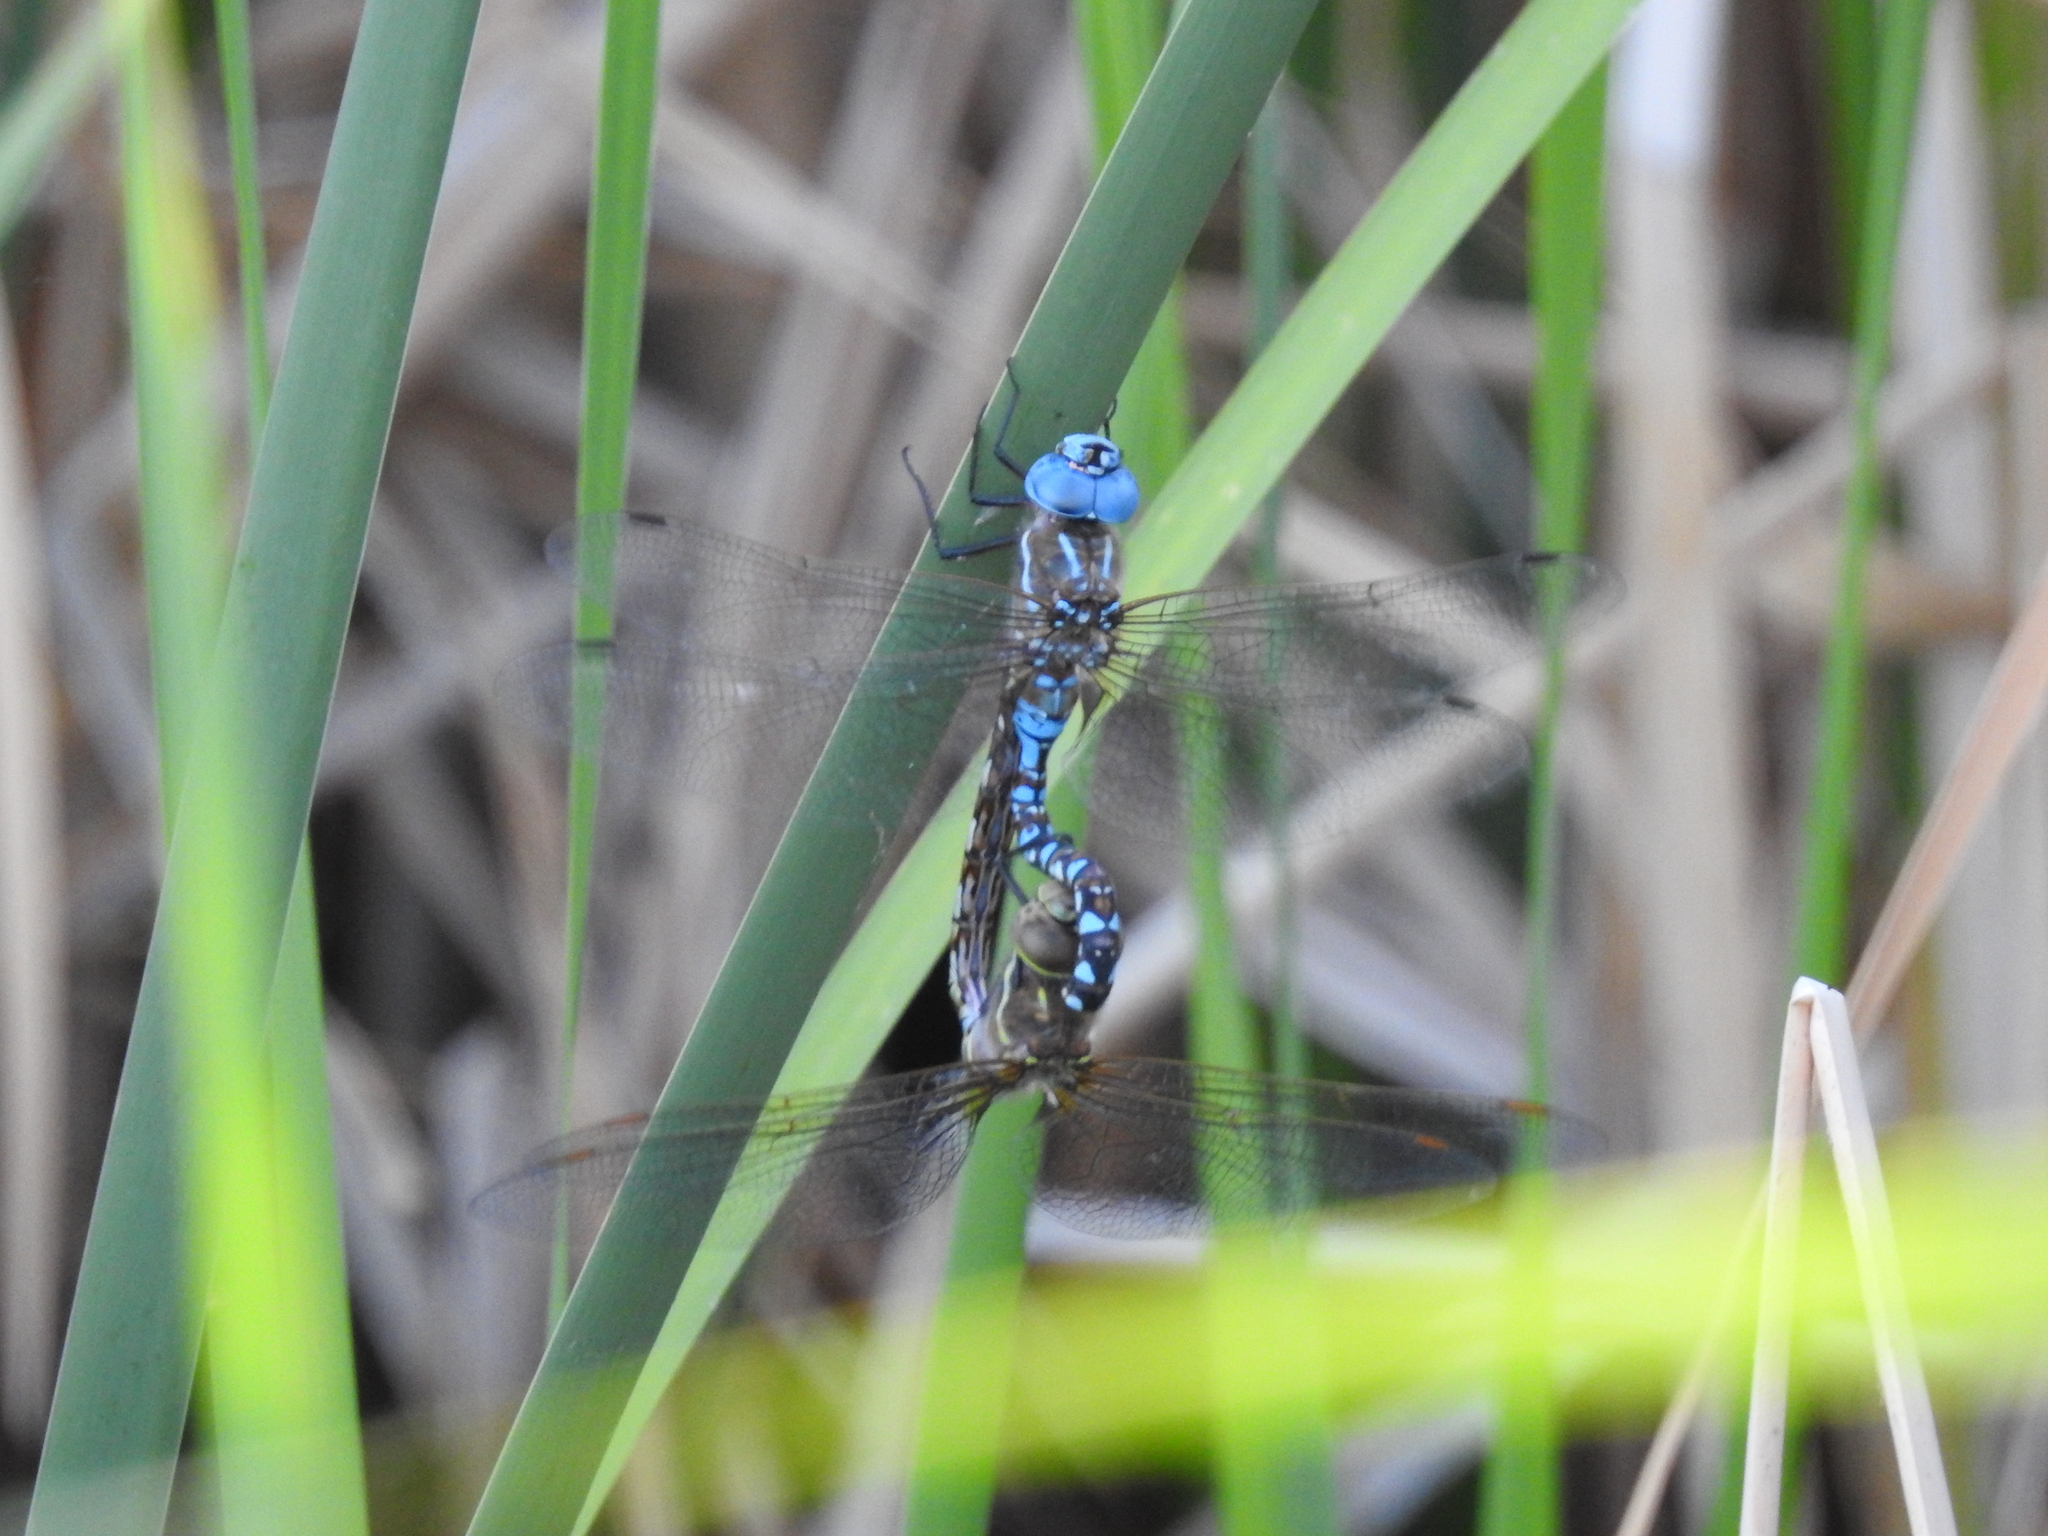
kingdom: Animalia
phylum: Arthropoda
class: Insecta
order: Odonata
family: Aeshnidae
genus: Rhionaeschna
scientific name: Rhionaeschna multicolor
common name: Blue-eyed darner
